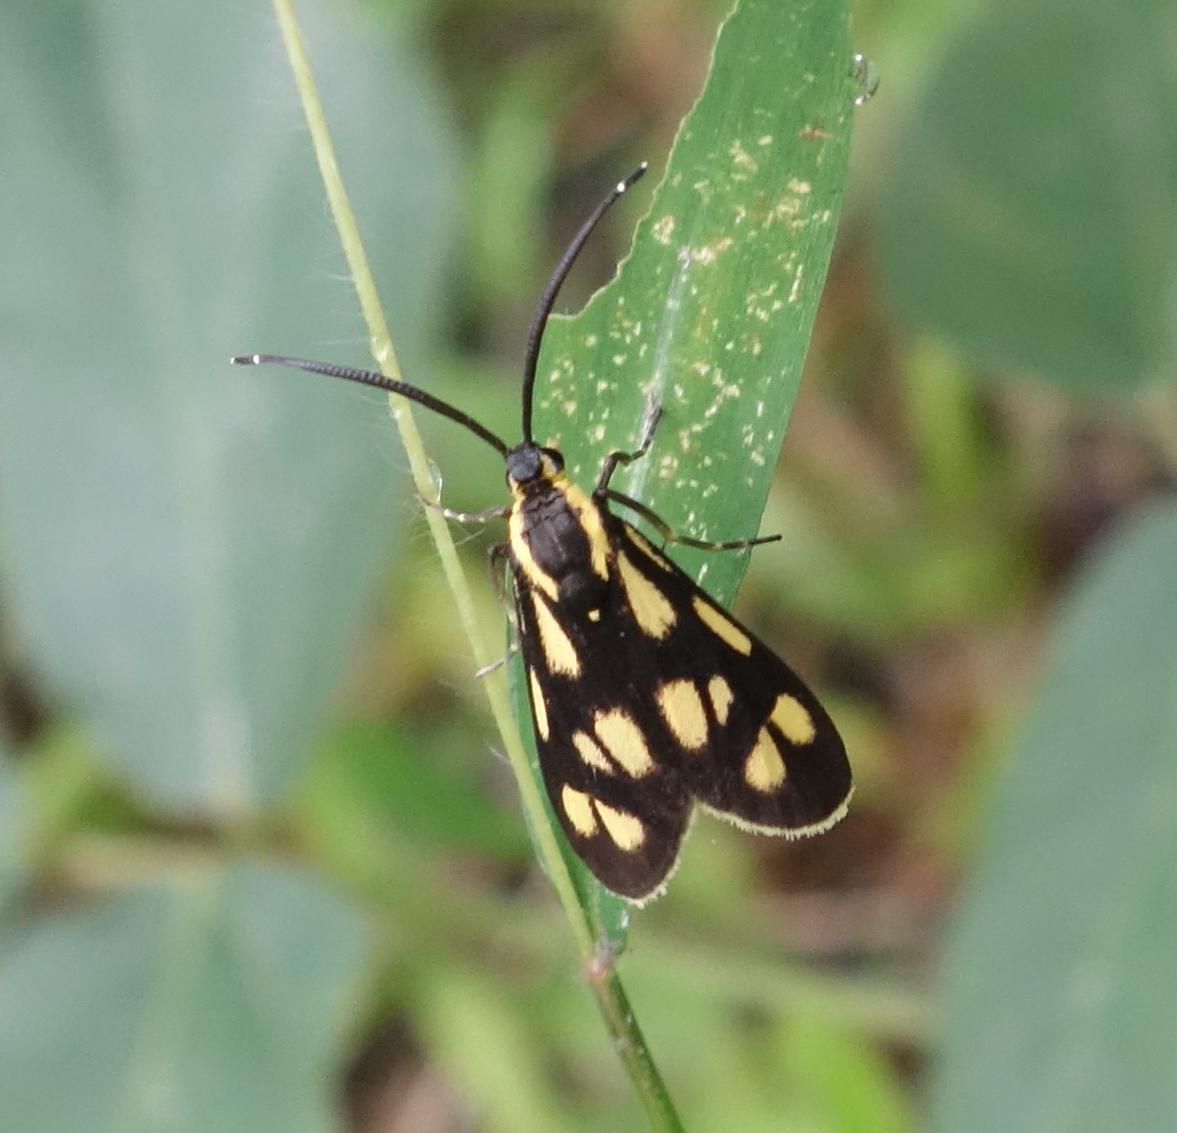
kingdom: Animalia
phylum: Arthropoda
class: Insecta
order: Lepidoptera
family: Zygaenidae
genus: Artona
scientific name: Artona walkeri
